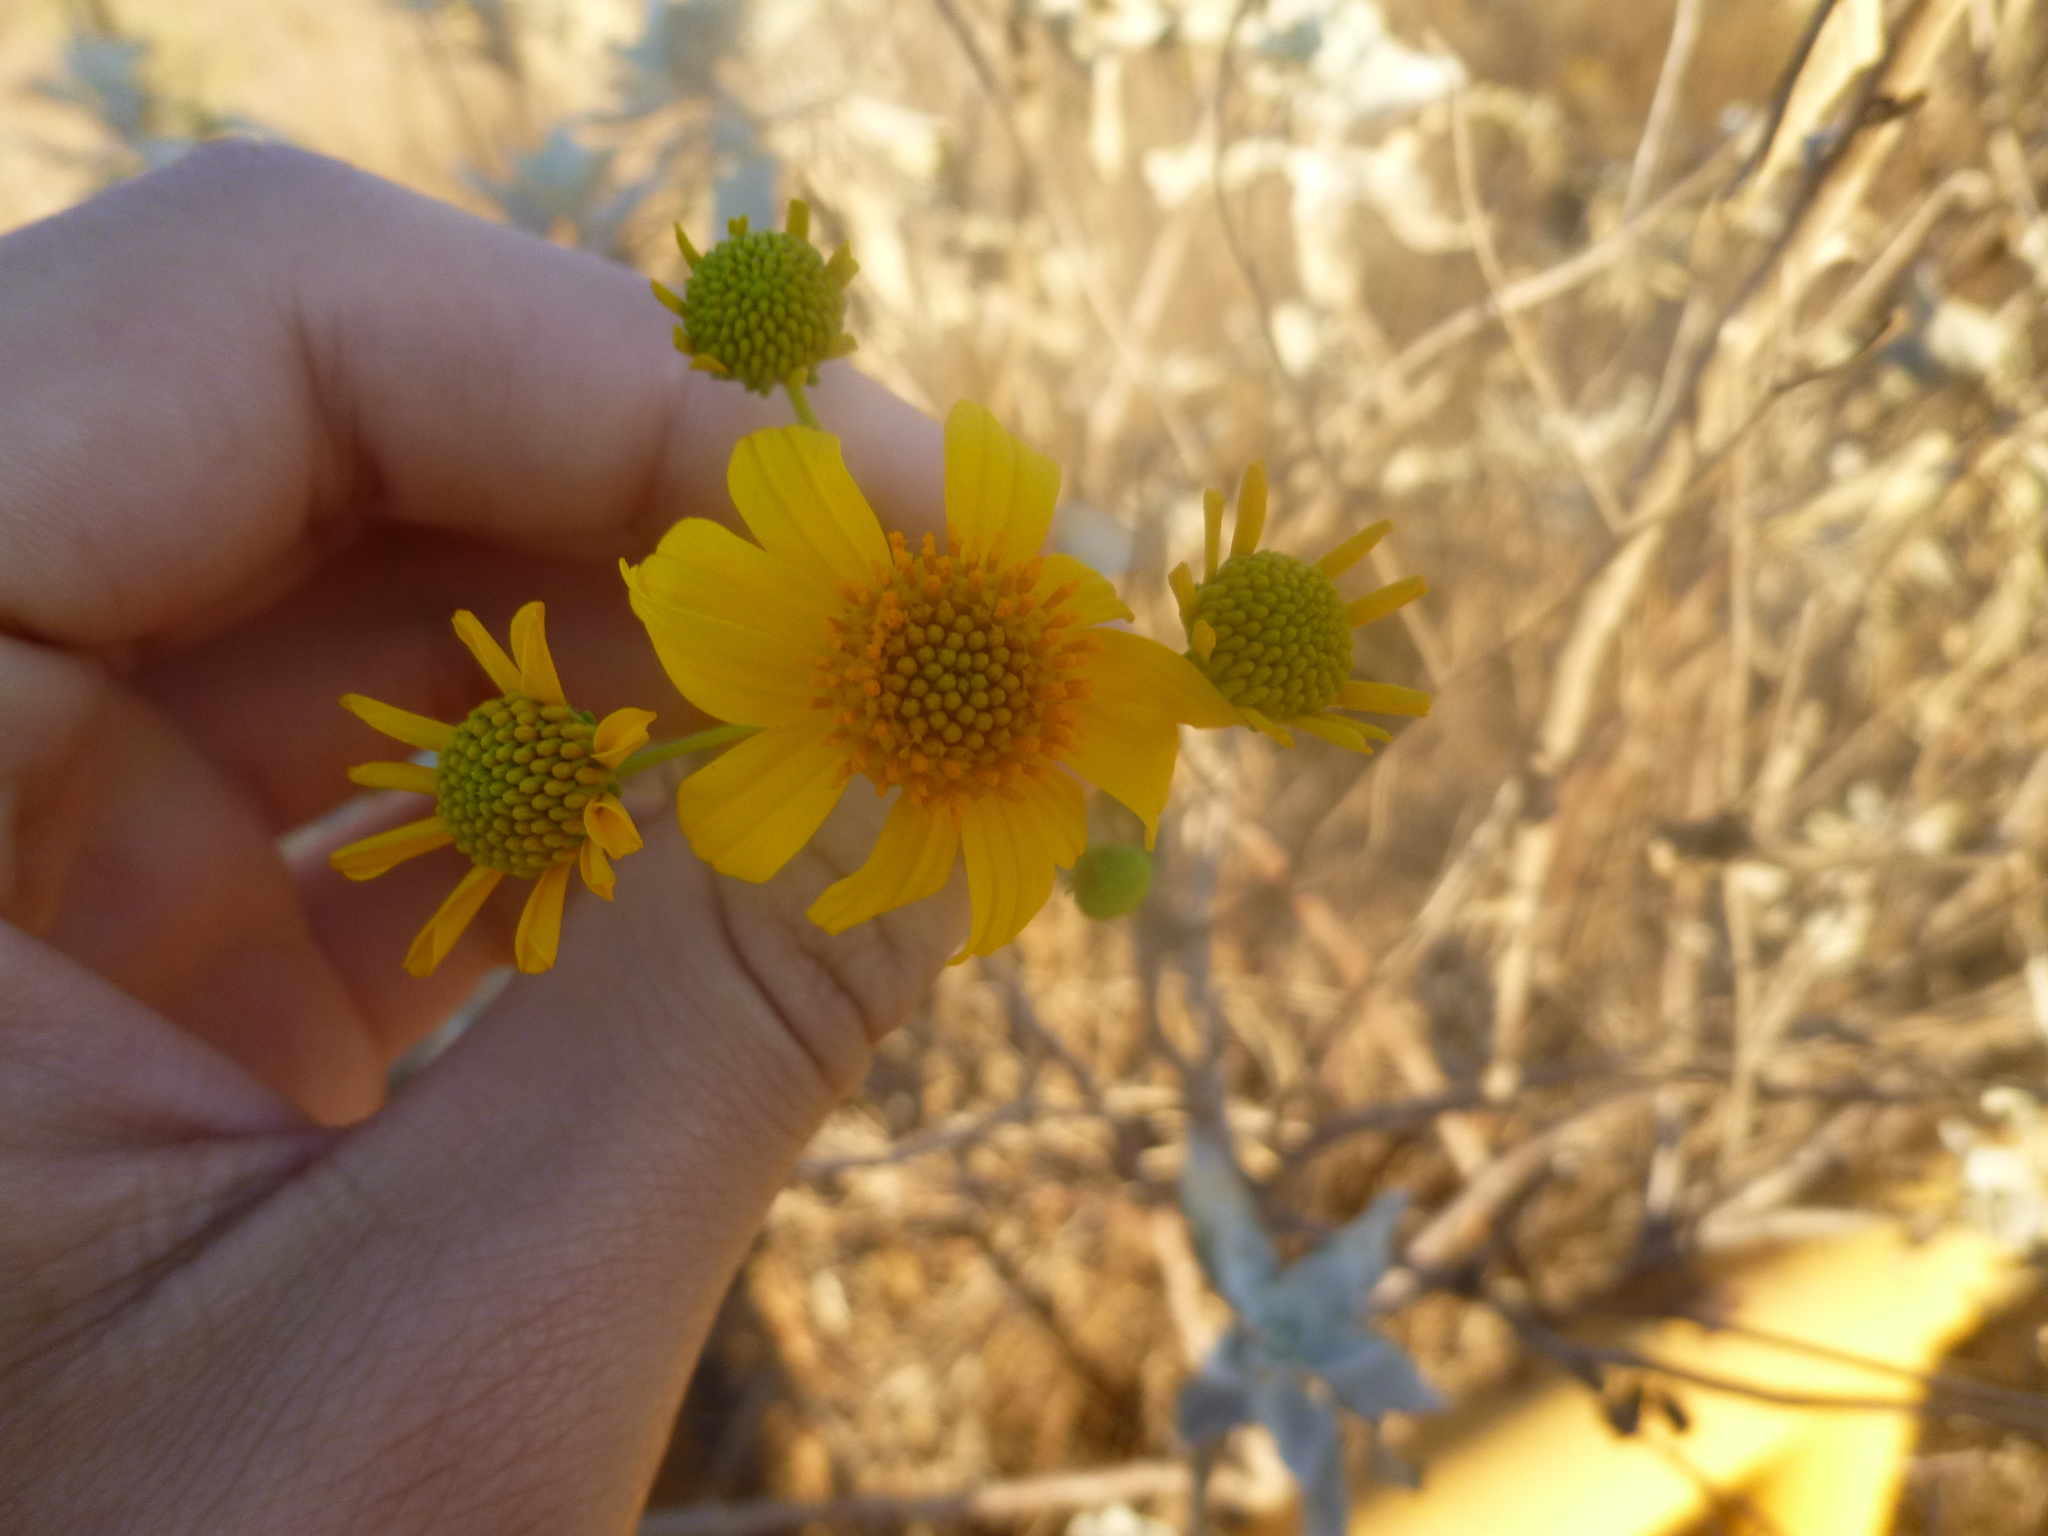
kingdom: Plantae
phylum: Tracheophyta
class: Magnoliopsida
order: Asterales
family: Asteraceae
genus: Encelia
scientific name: Encelia farinosa
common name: Brittlebush
